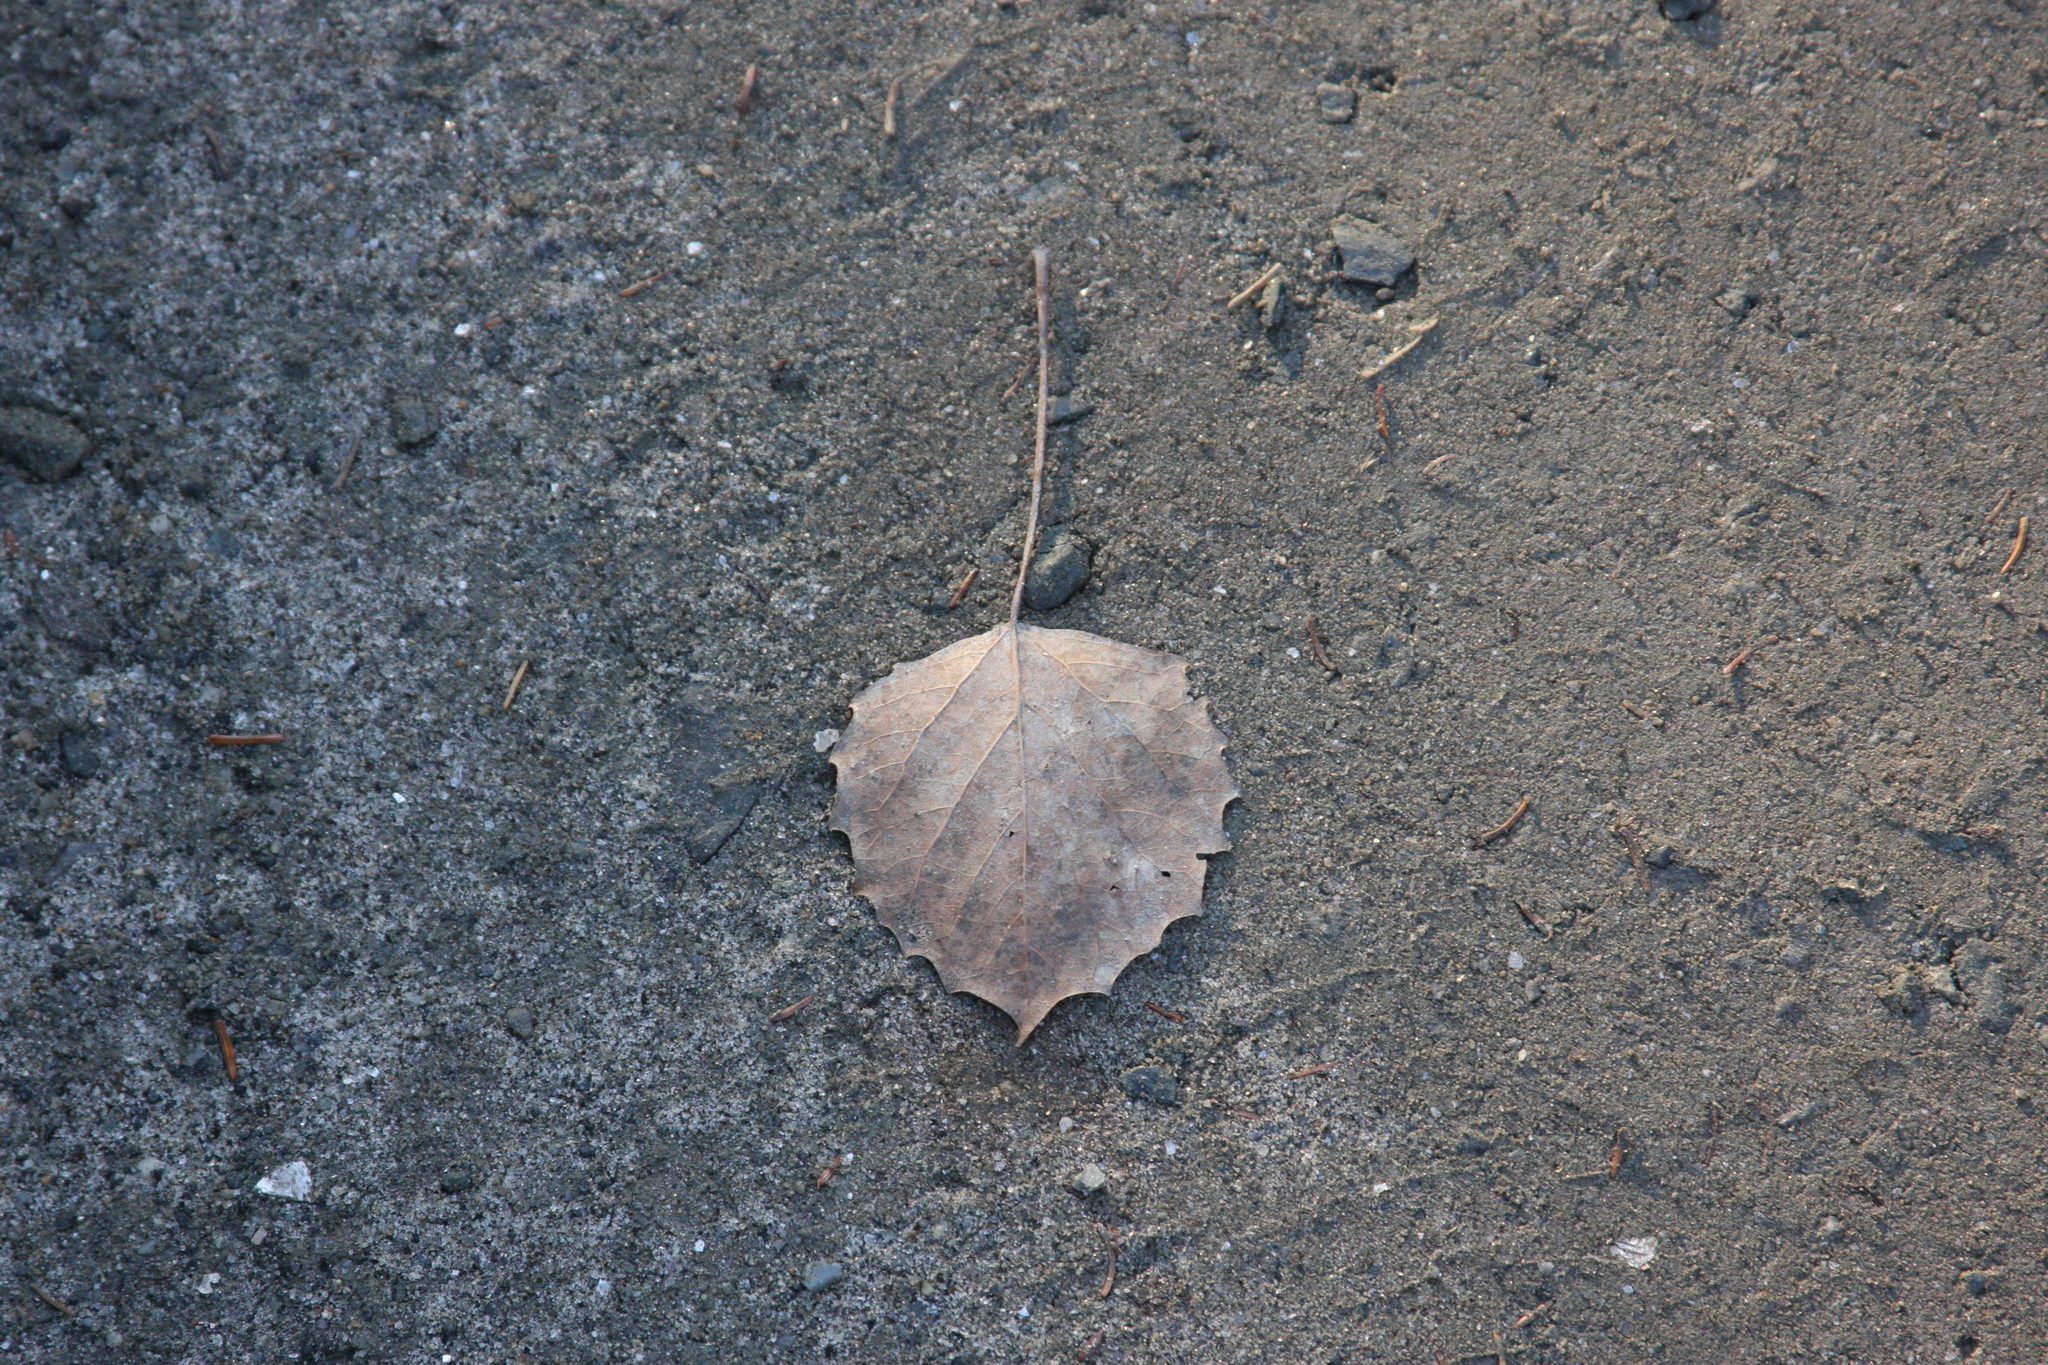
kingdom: Plantae
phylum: Tracheophyta
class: Magnoliopsida
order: Malpighiales
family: Salicaceae
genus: Populus
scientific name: Populus grandidentata
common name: Bigtooth aspen
